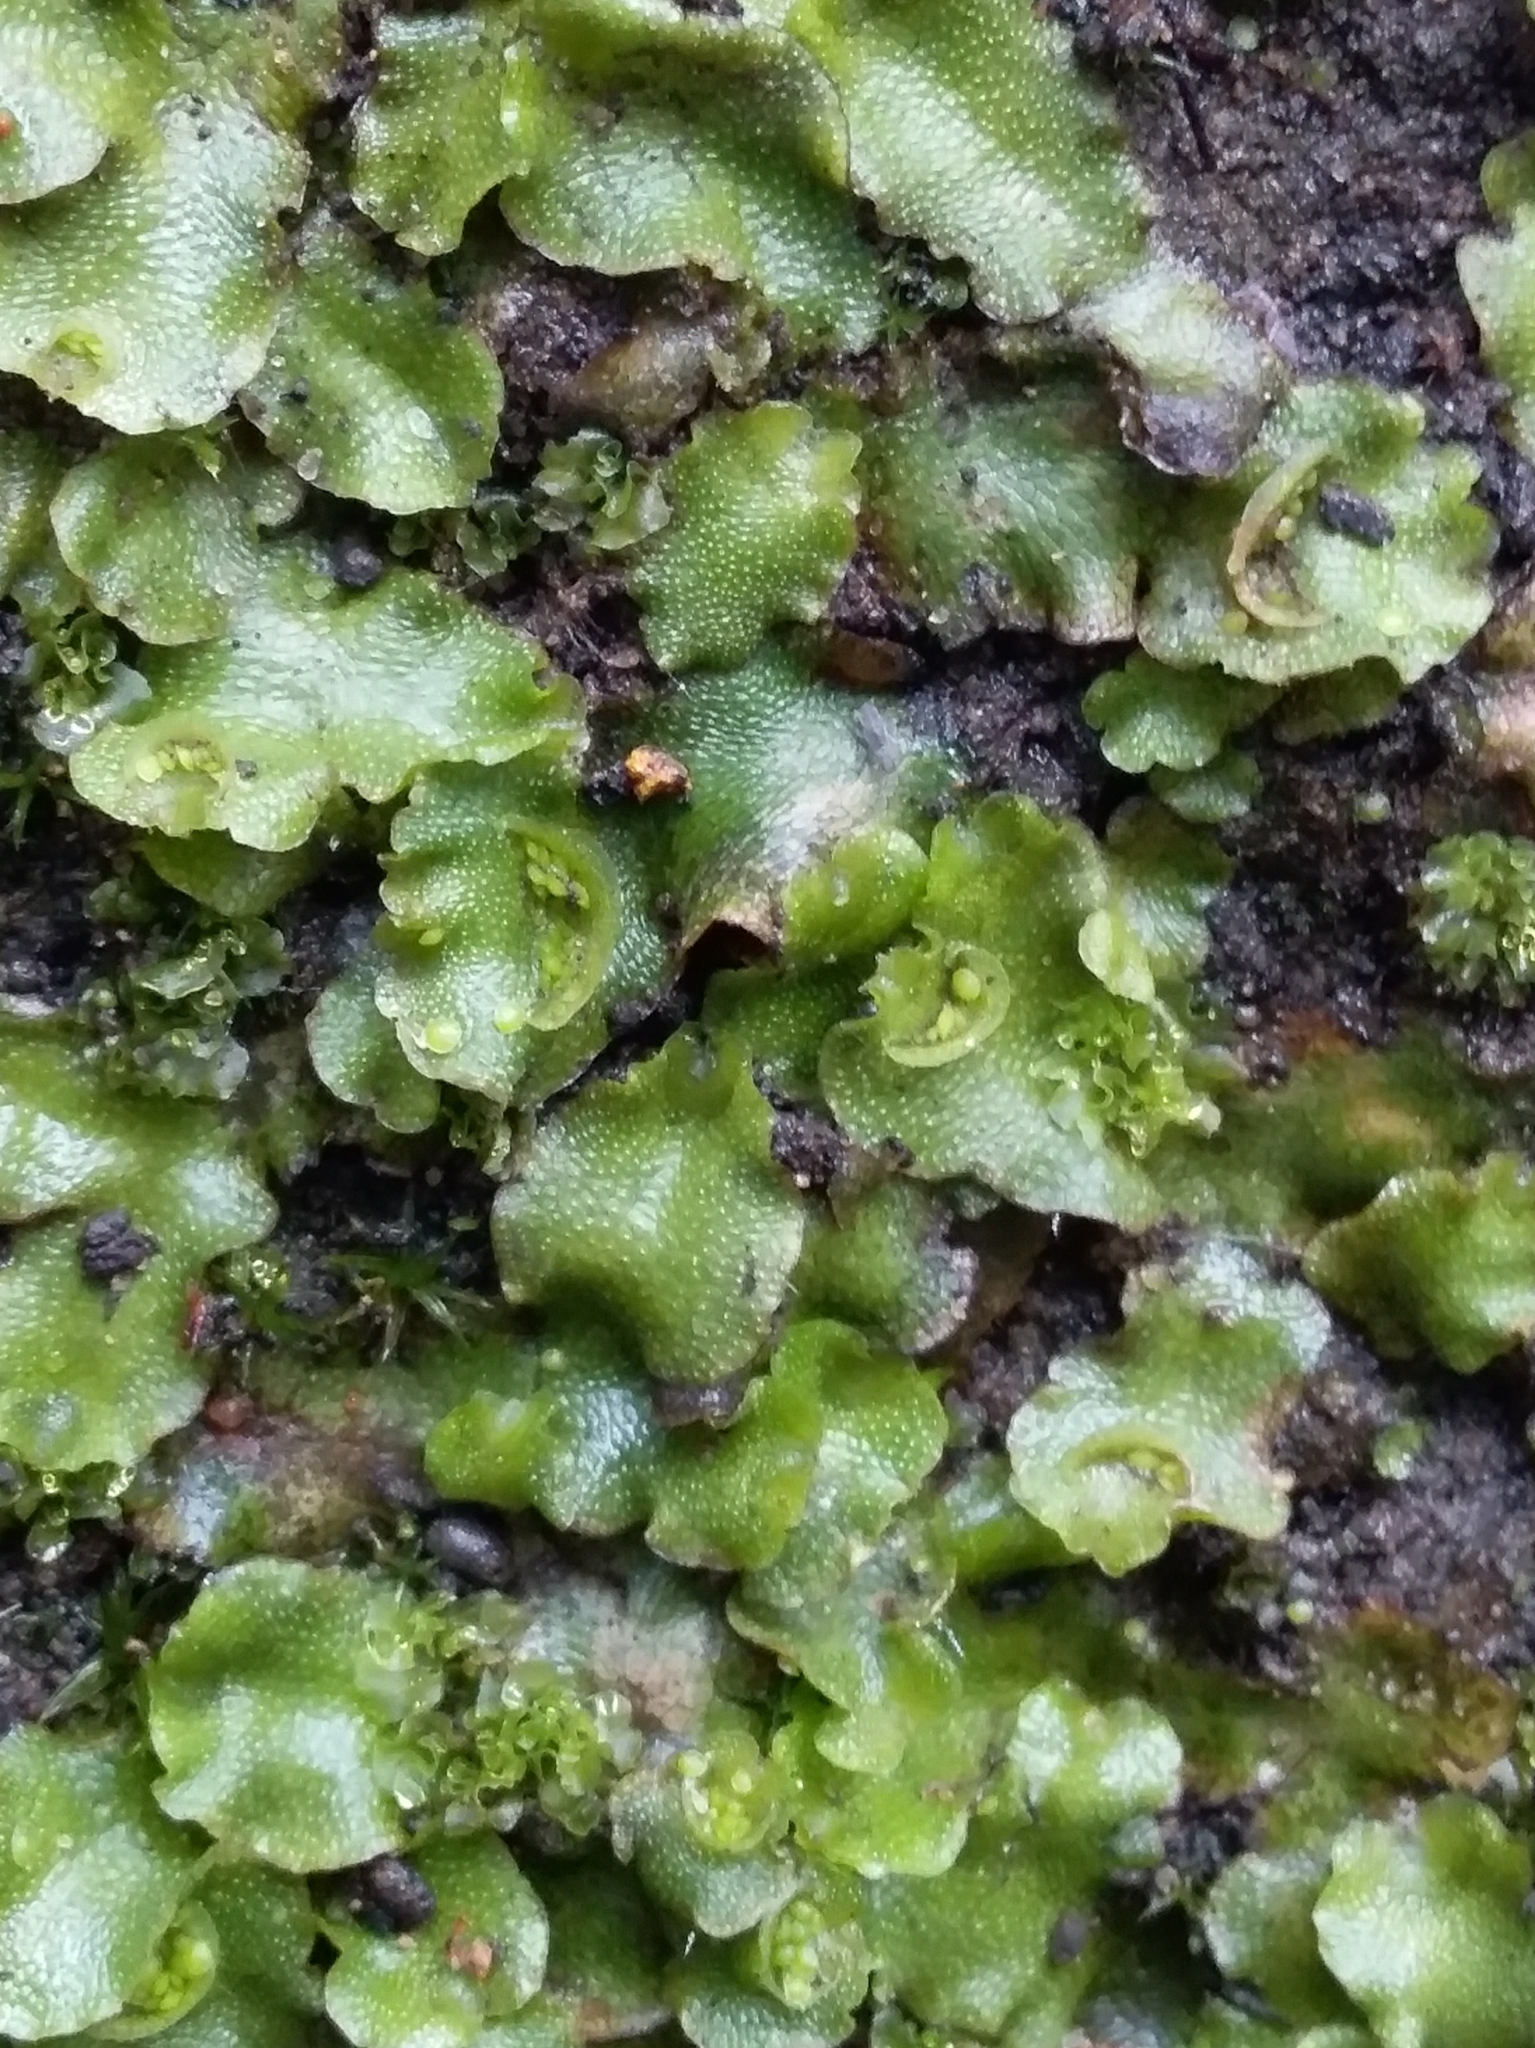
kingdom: Plantae
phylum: Marchantiophyta
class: Marchantiopsida
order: Lunulariales
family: Lunulariaceae
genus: Lunularia
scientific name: Lunularia cruciata
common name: Crescent-cup liverwort
